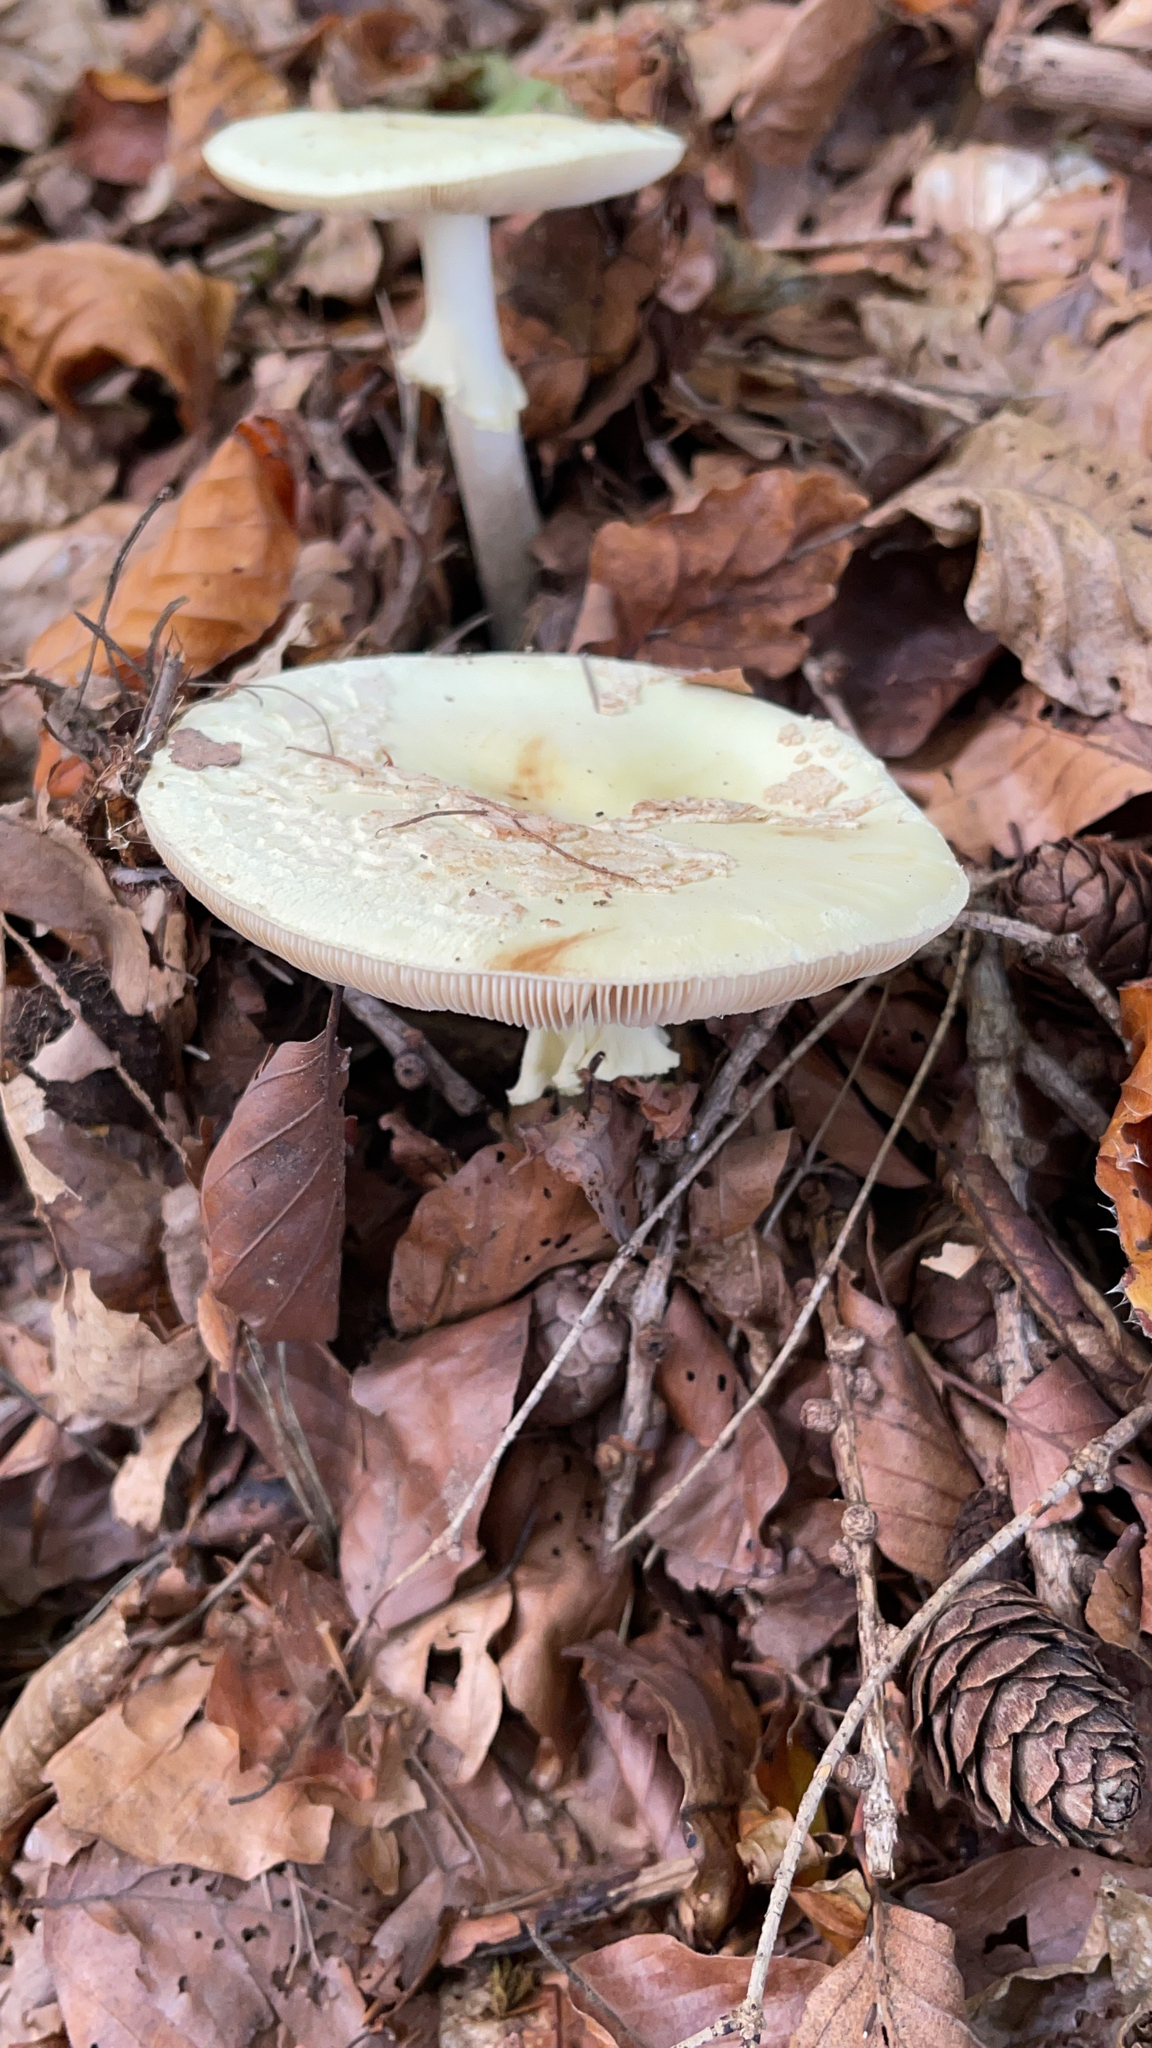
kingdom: Fungi
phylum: Basidiomycota
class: Agaricomycetes
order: Agaricales
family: Amanitaceae
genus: Amanita
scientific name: Amanita citrina
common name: False death-cap
